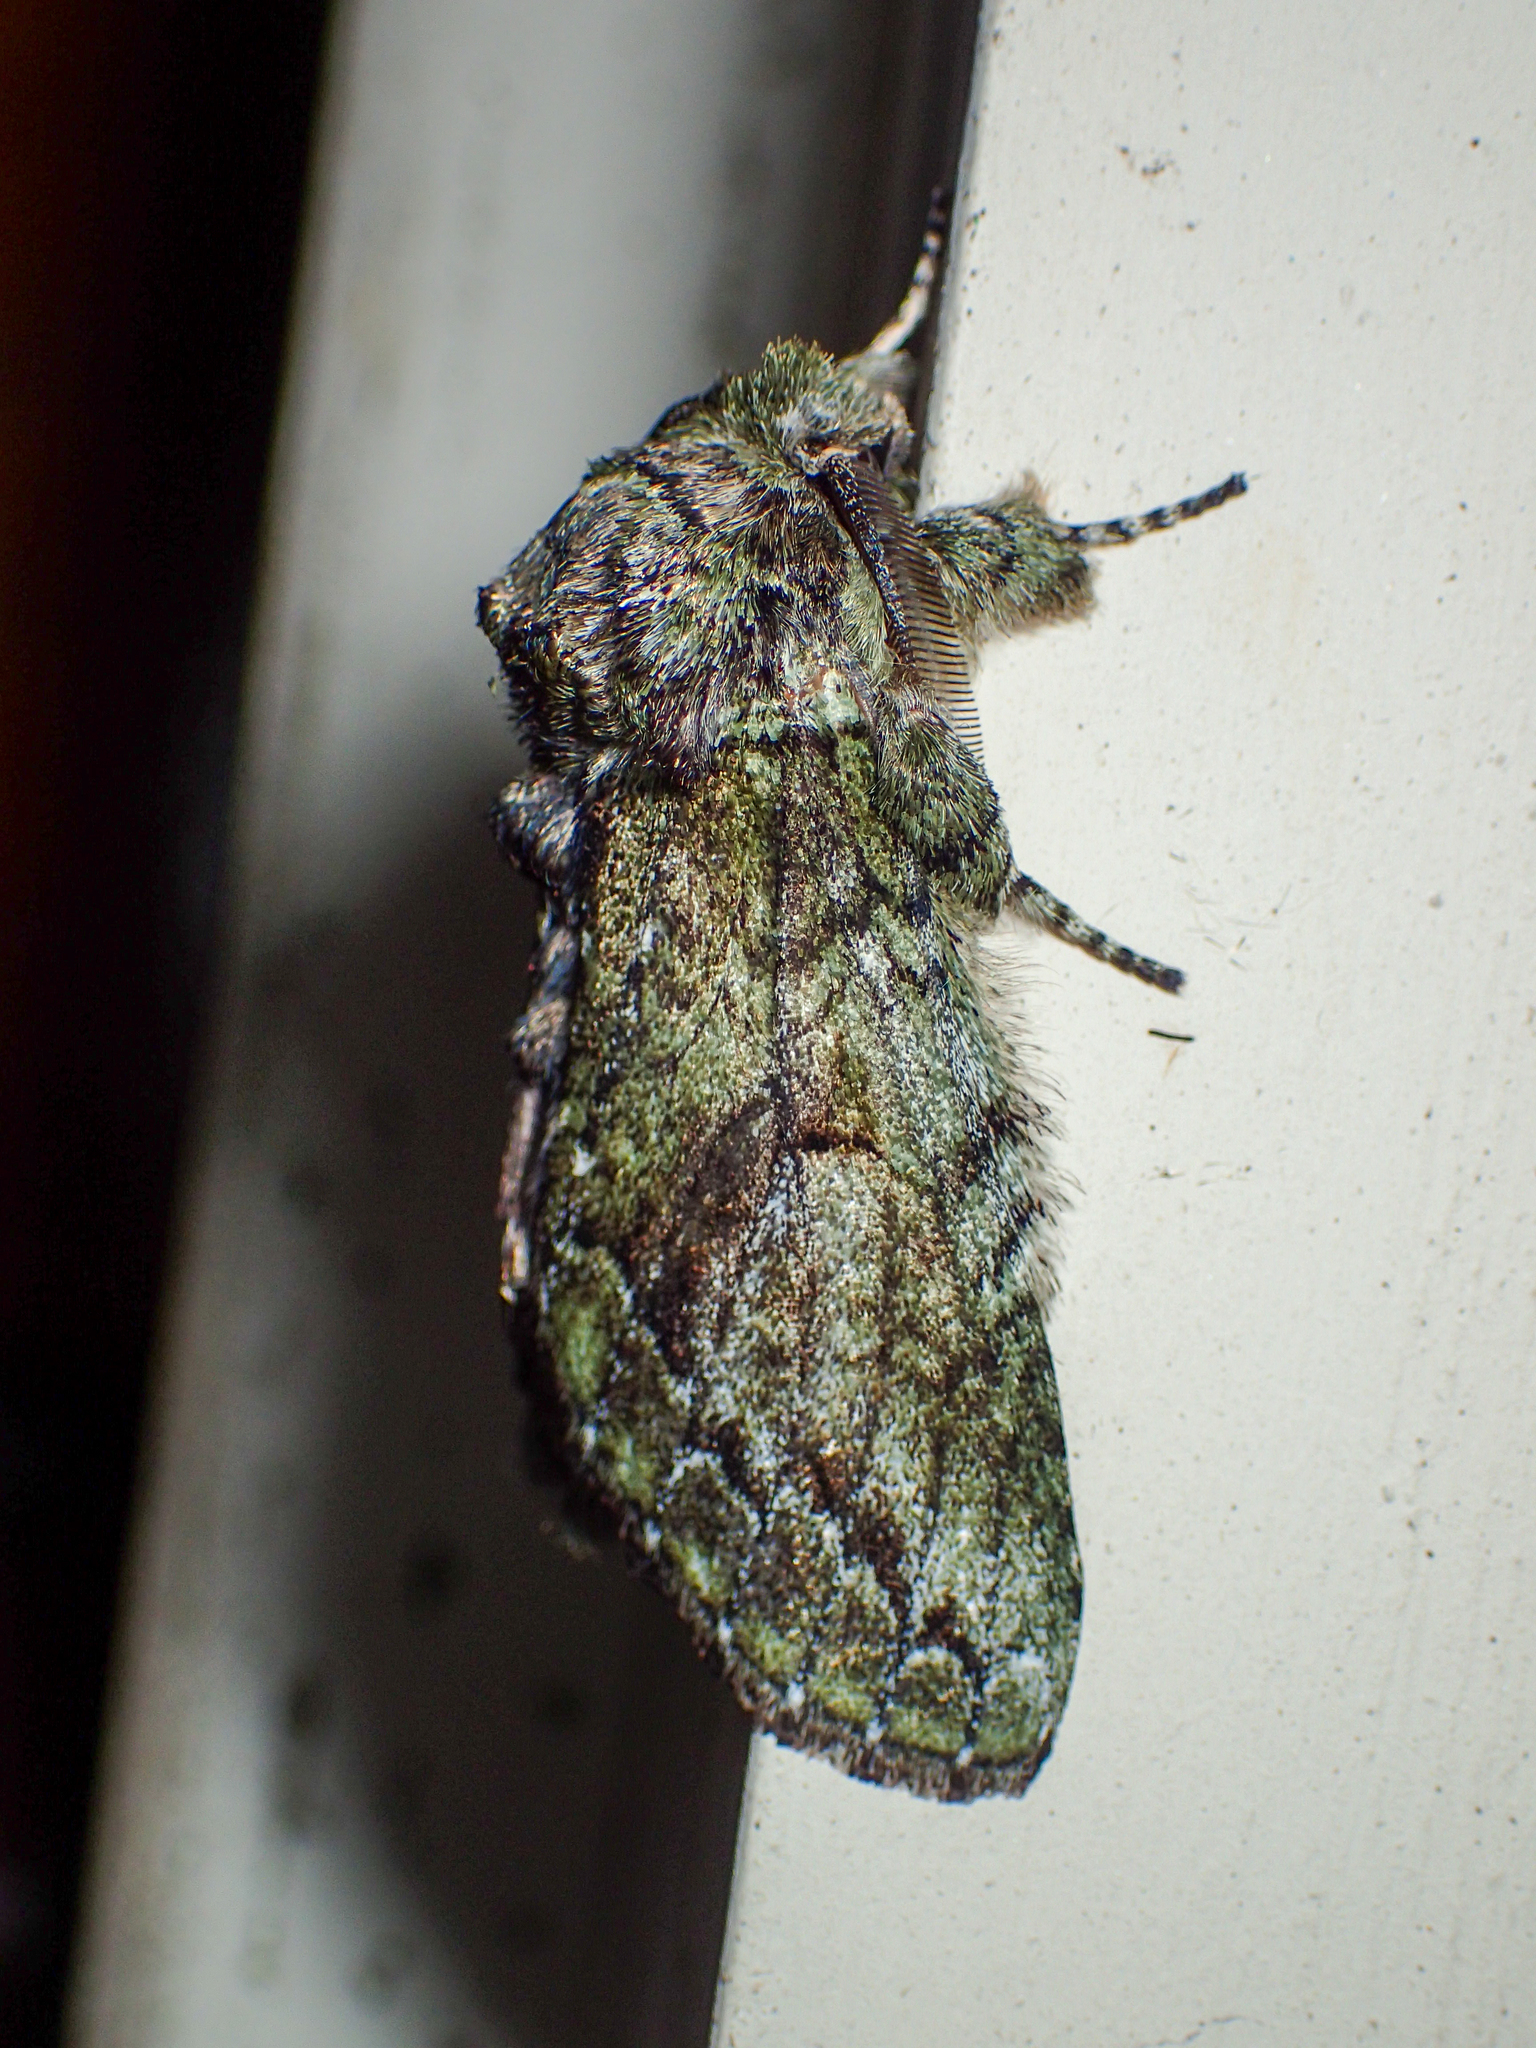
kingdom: Animalia
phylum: Arthropoda
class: Insecta
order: Lepidoptera
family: Notodontidae
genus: Heterocampa
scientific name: Heterocampa
